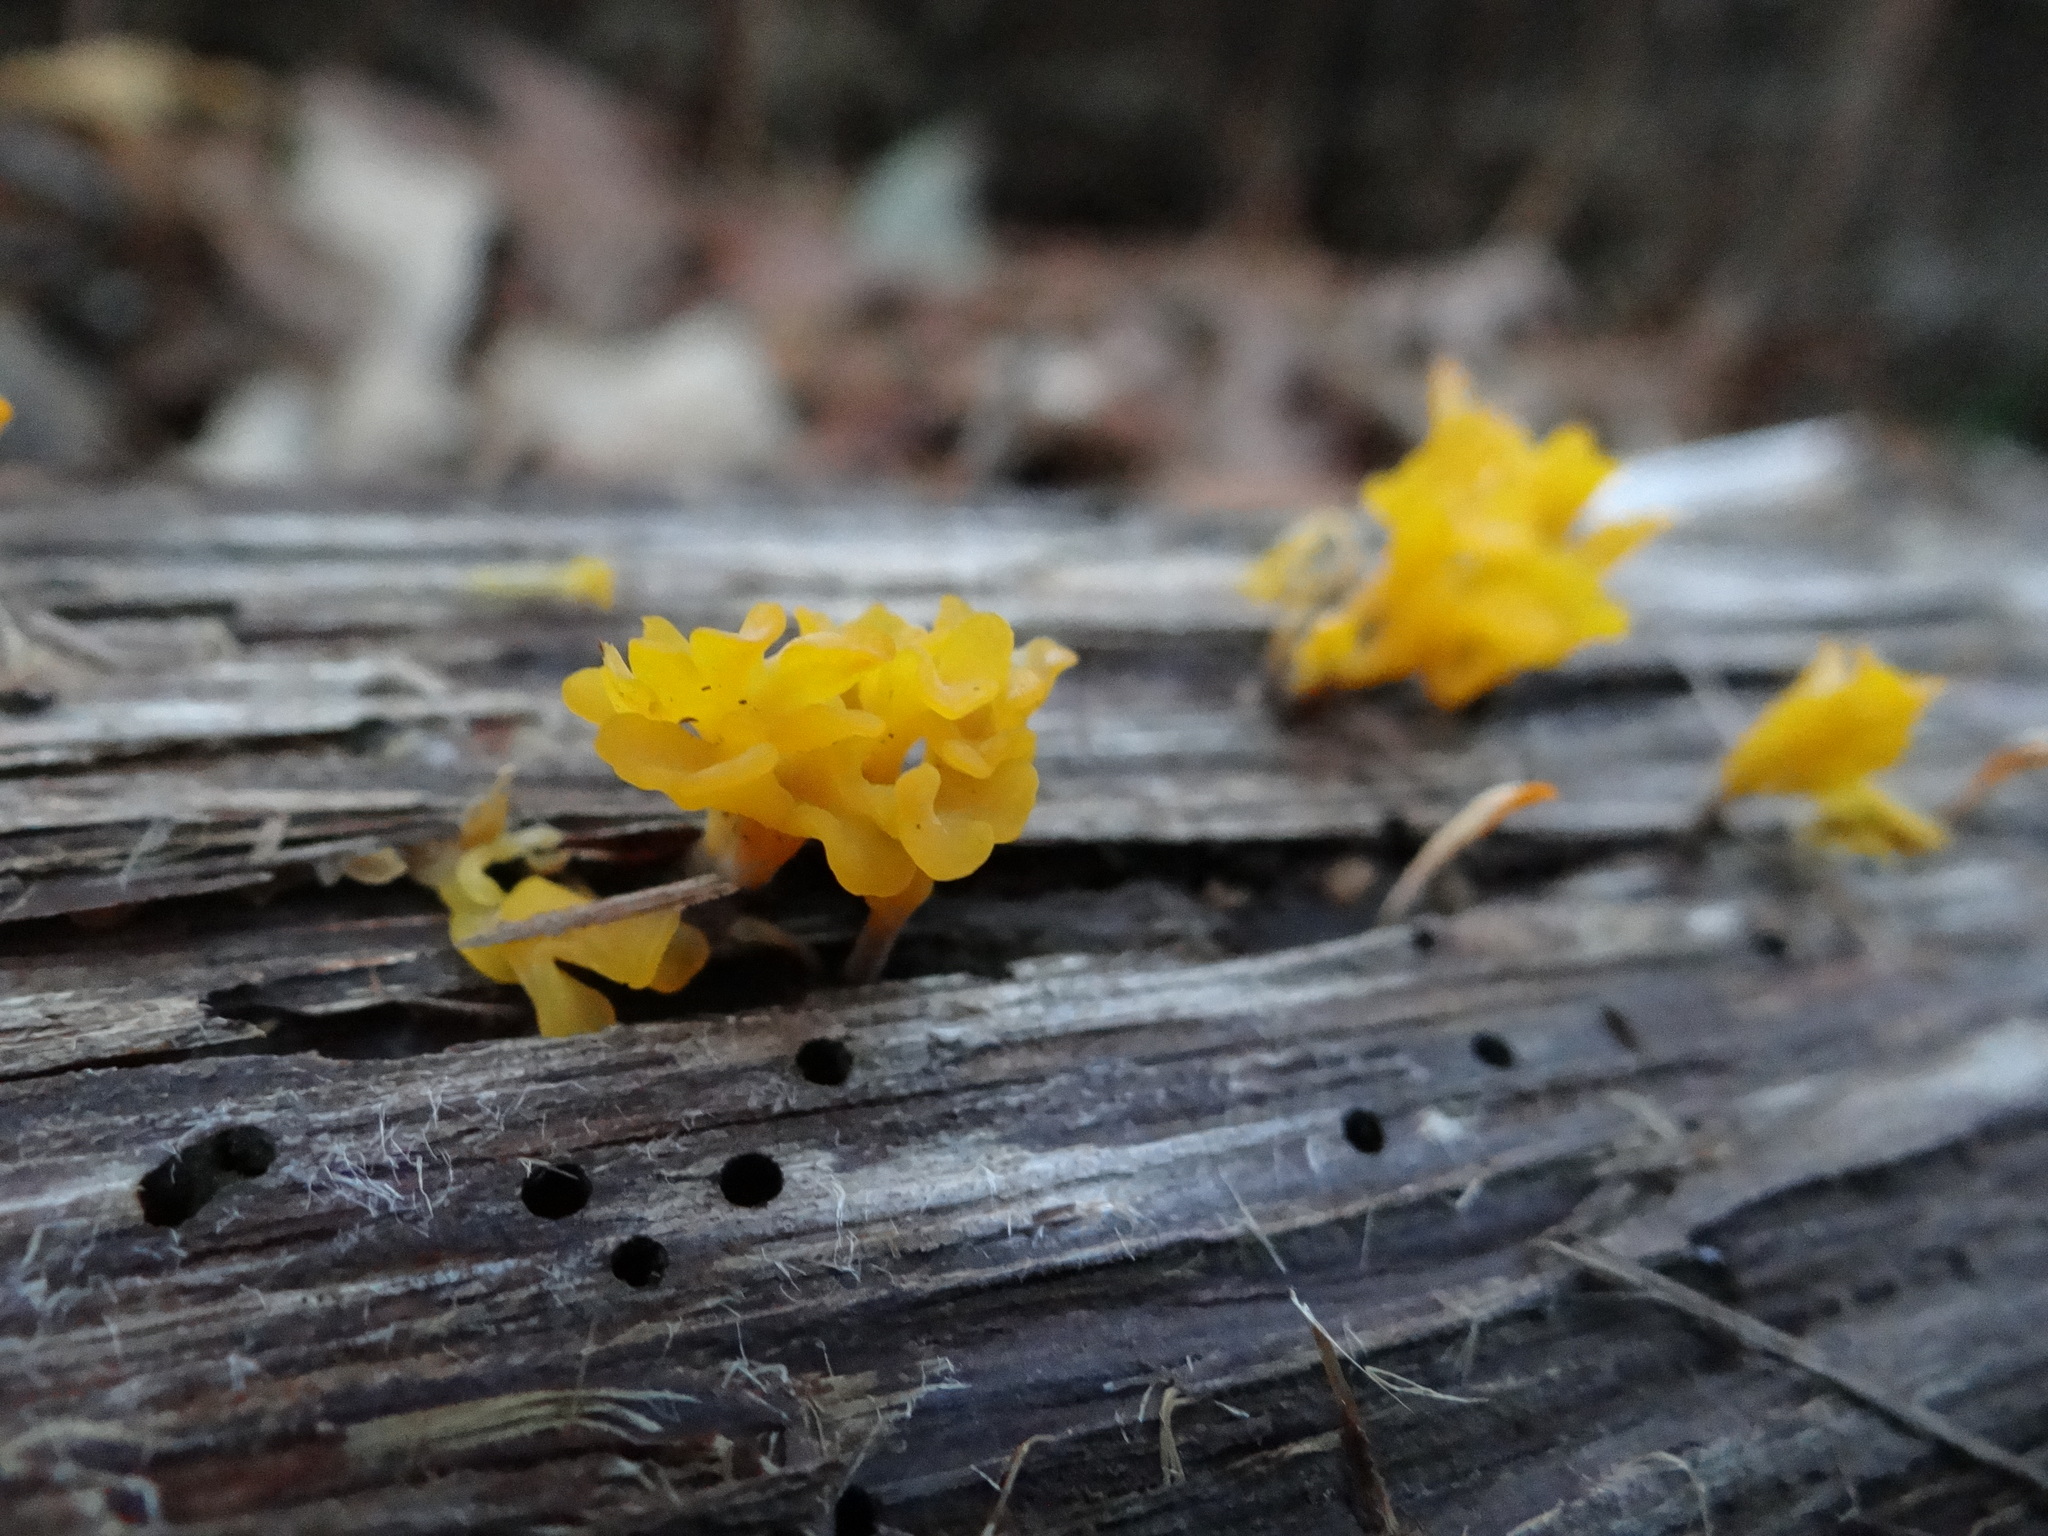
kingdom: Fungi
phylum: Basidiomycota
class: Dacrymycetes
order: Dacrymycetales
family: Dacrymycetaceae
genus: Dacrymyces
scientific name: Dacrymyces spathularius
